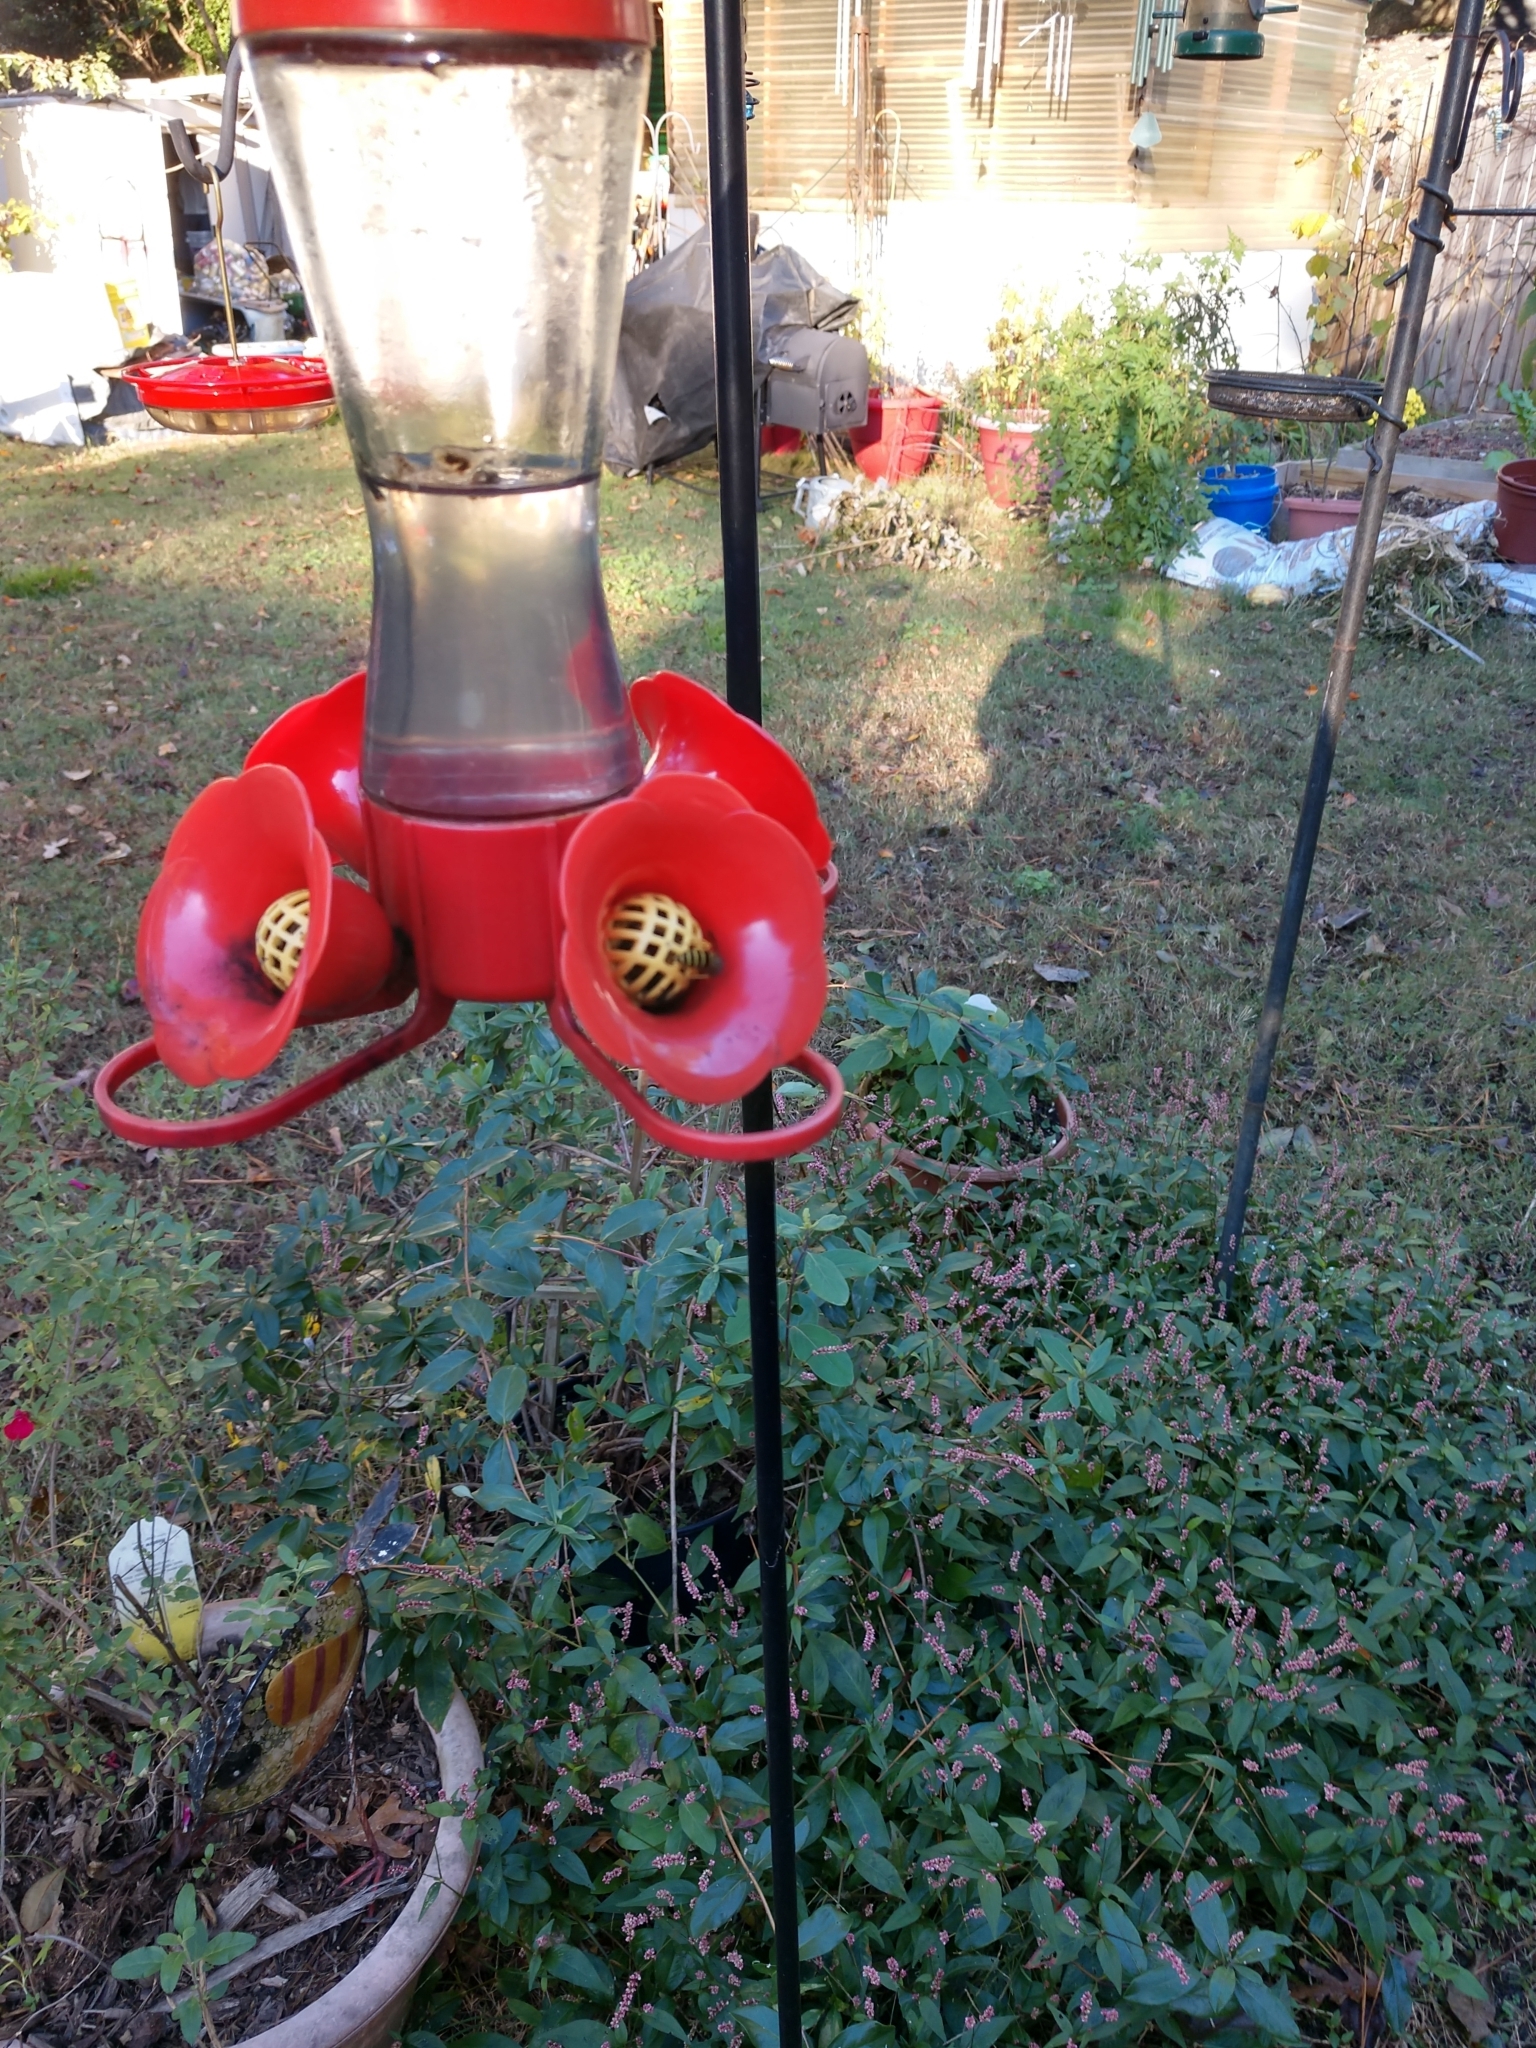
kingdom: Animalia
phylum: Arthropoda
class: Insecta
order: Hymenoptera
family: Vespidae
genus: Vespula
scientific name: Vespula
